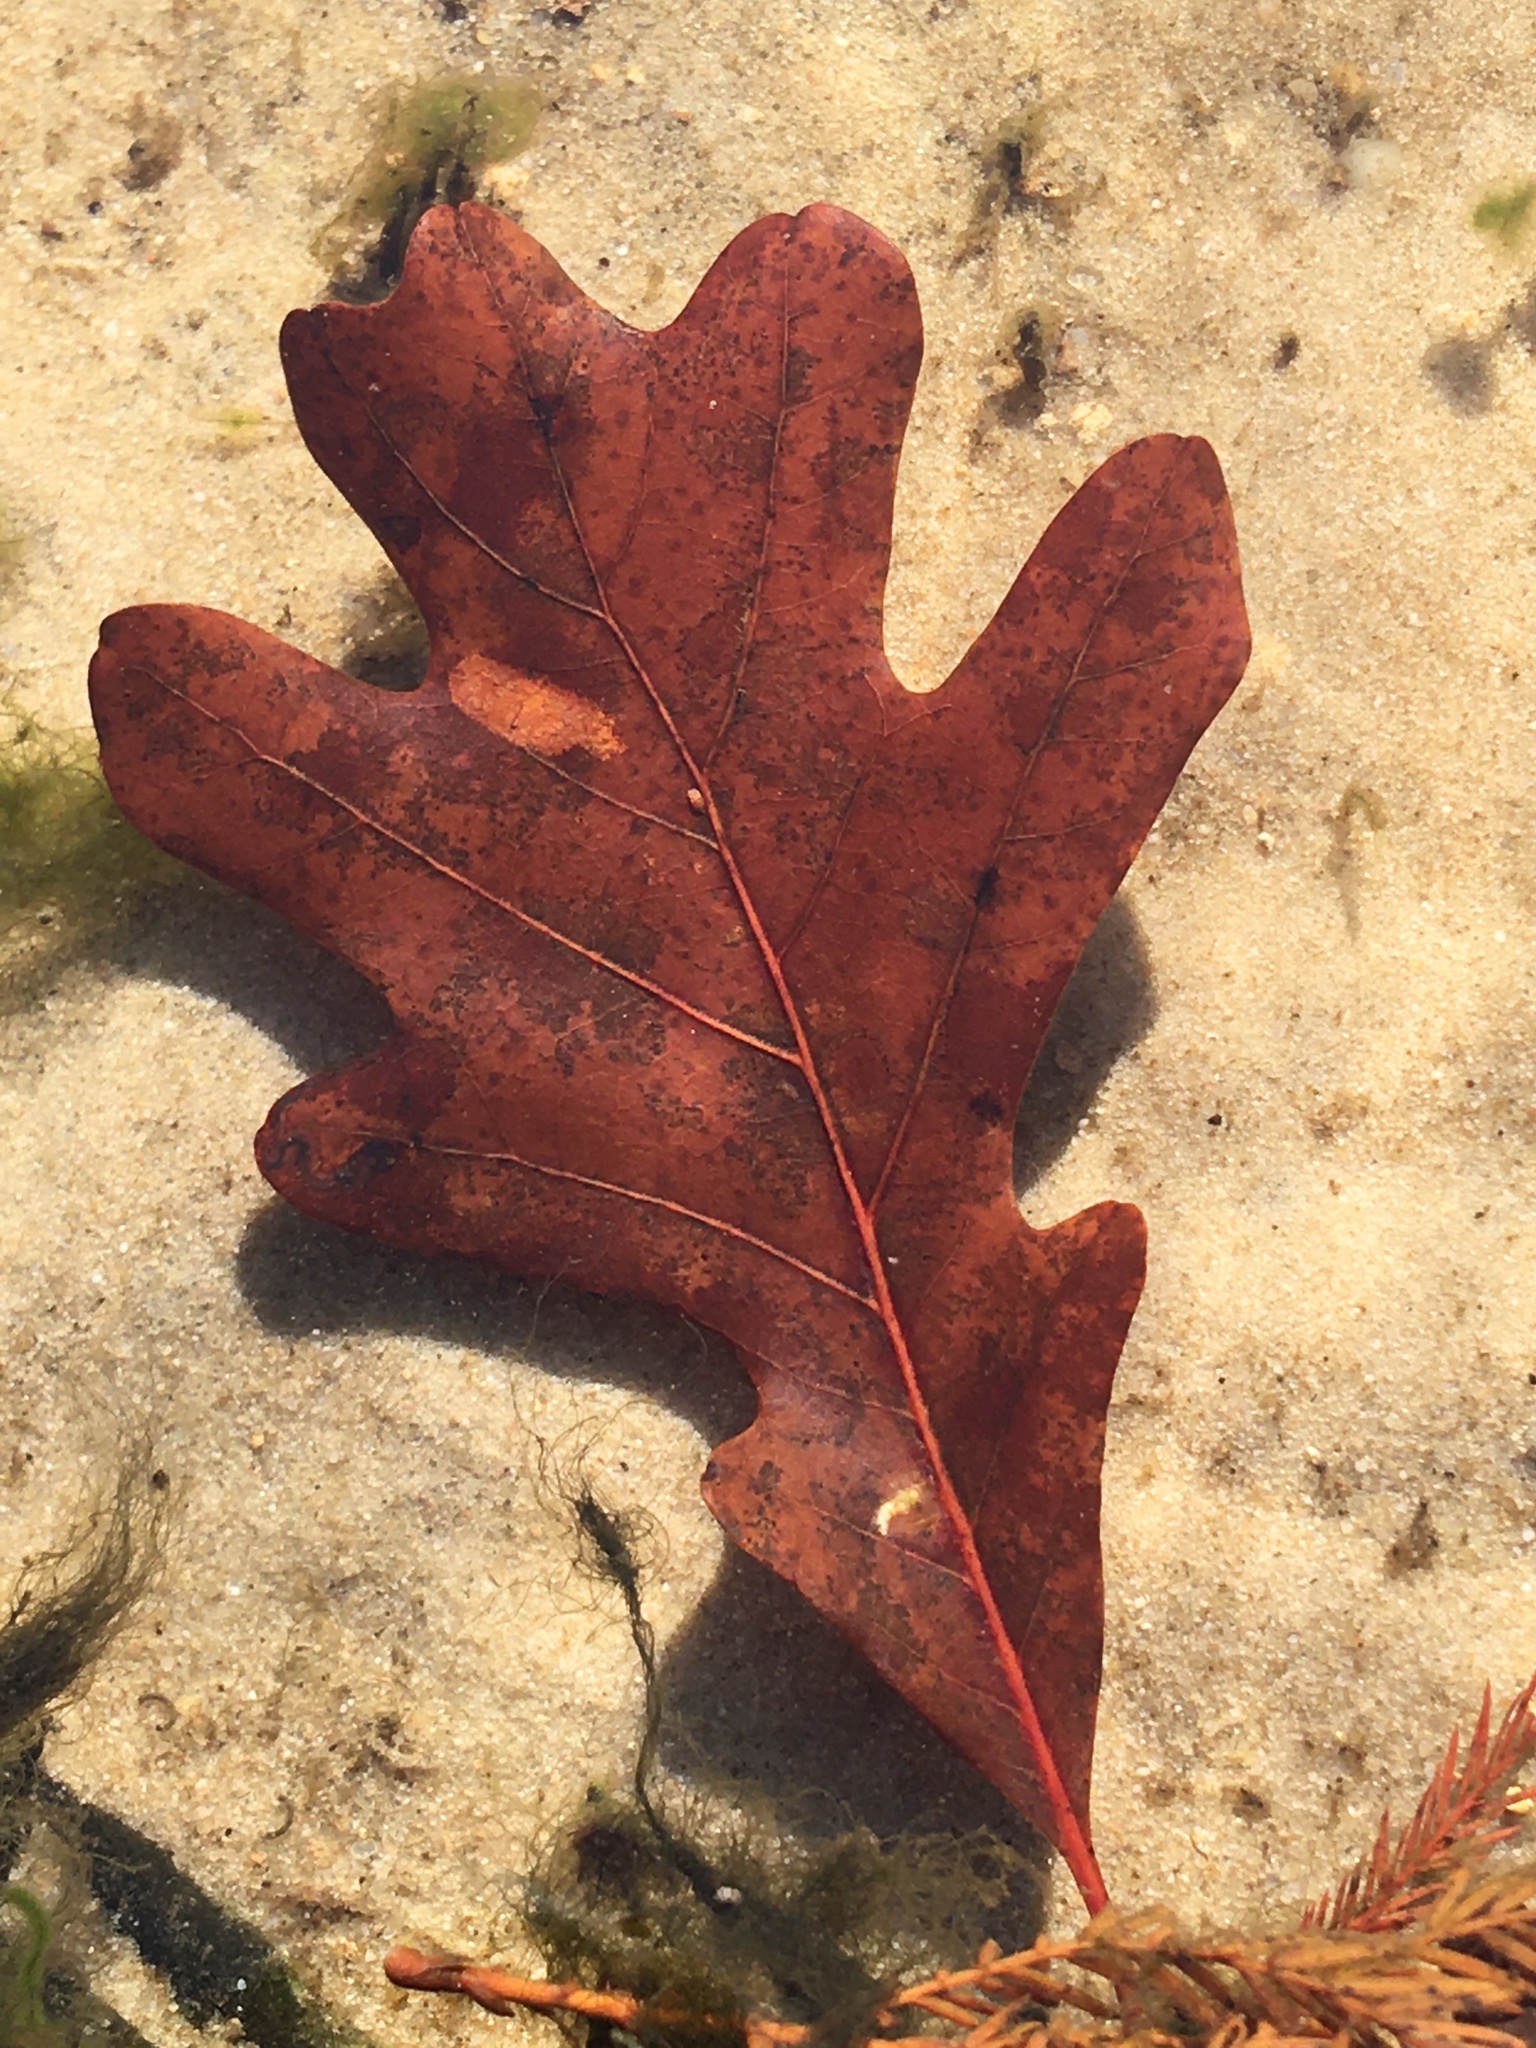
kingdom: Plantae
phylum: Tracheophyta
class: Magnoliopsida
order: Fagales
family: Fagaceae
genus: Quercus
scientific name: Quercus alba
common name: White oak
